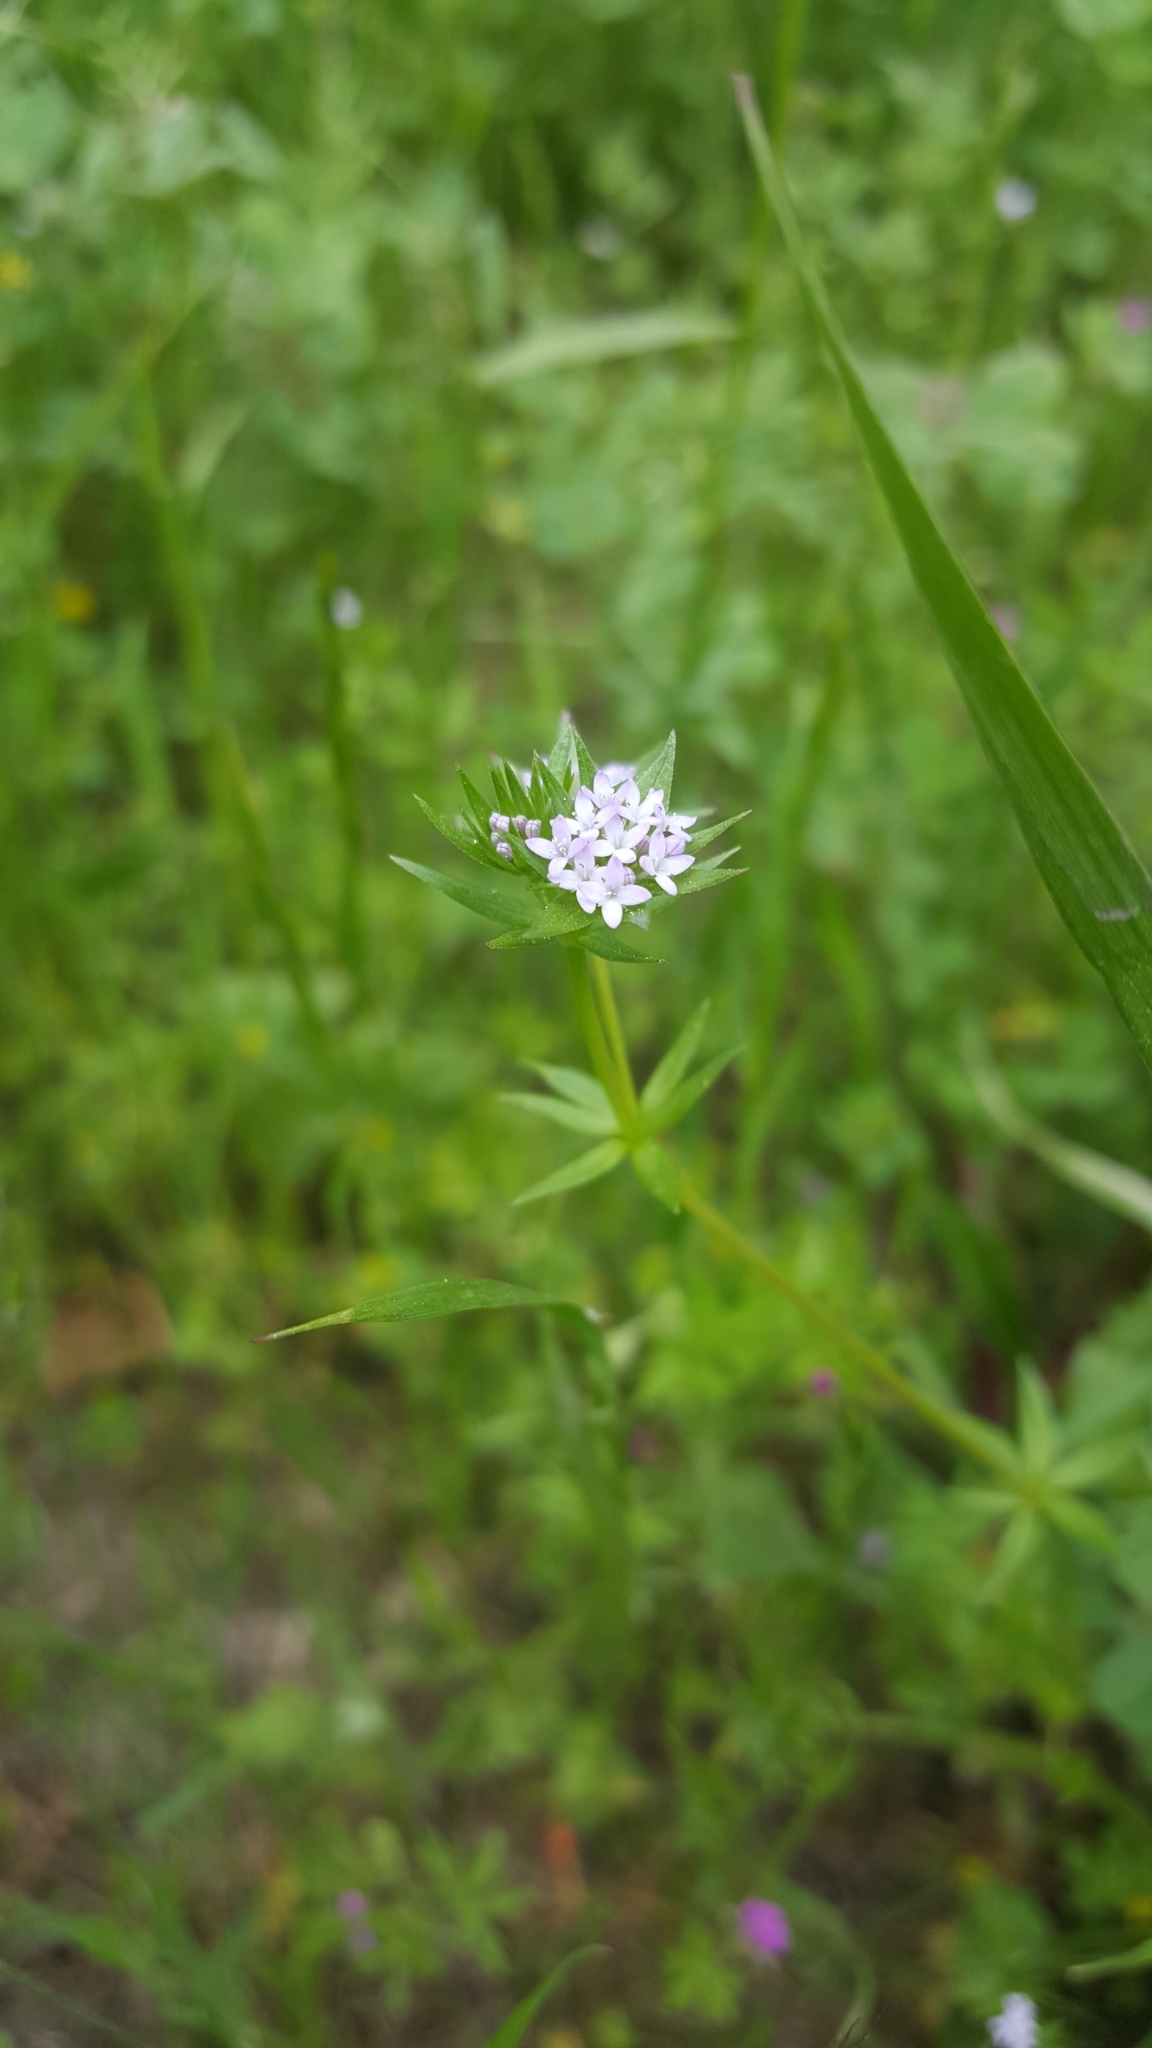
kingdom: Plantae
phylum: Tracheophyta
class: Magnoliopsida
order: Gentianales
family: Rubiaceae
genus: Sherardia
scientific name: Sherardia arvensis
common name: Field madder
